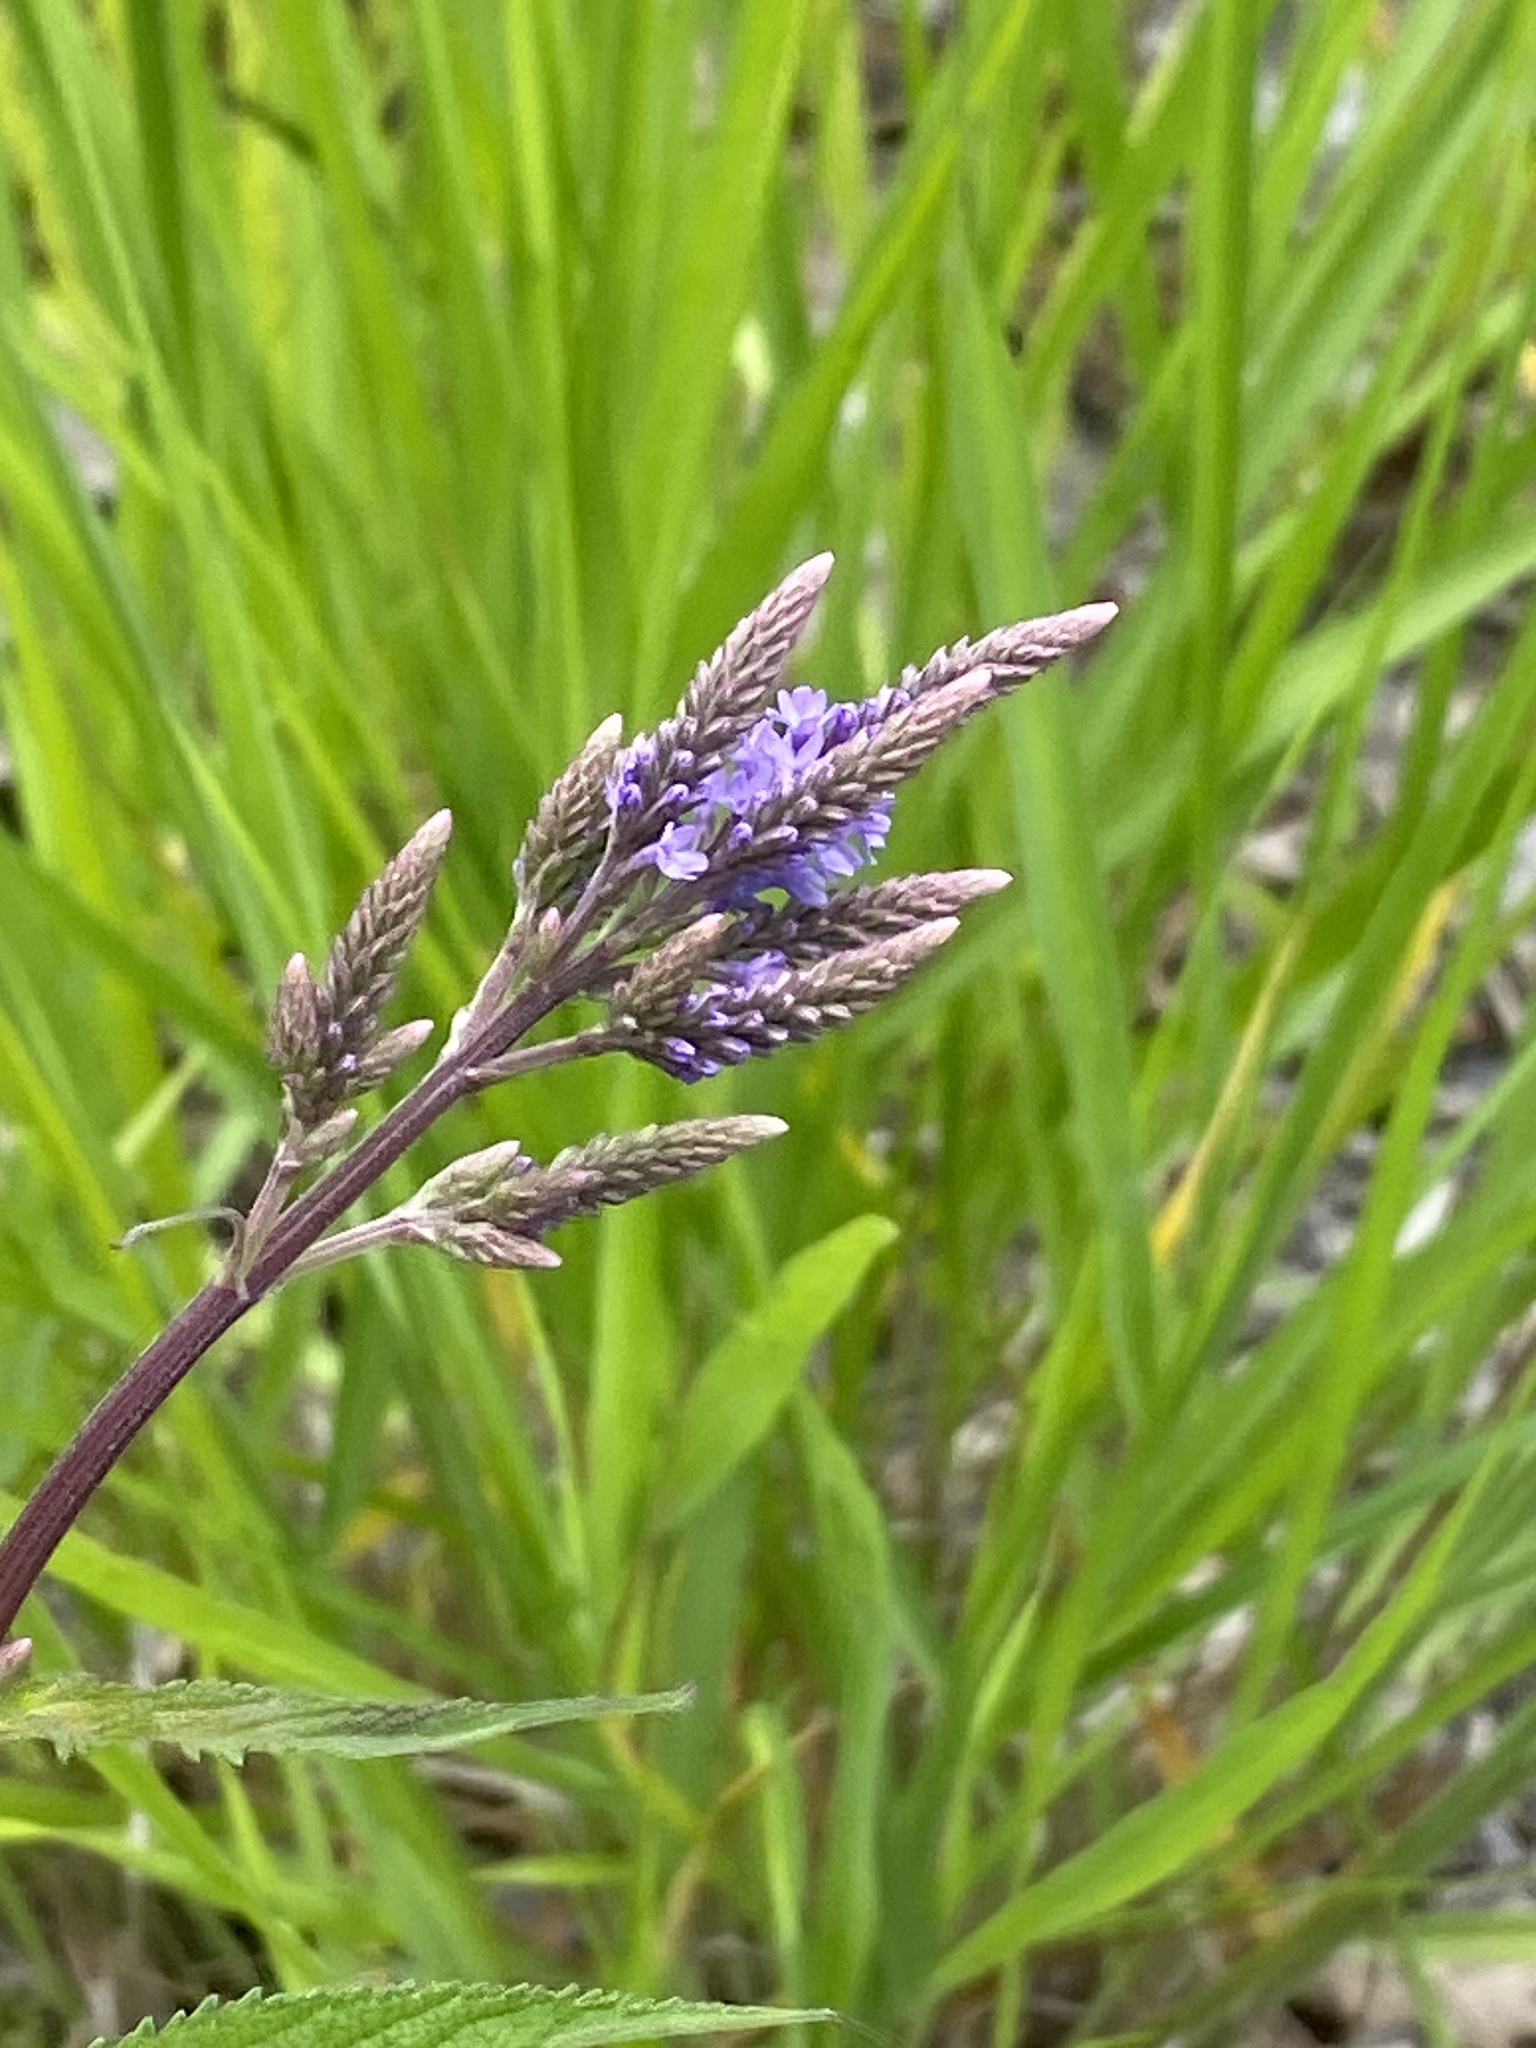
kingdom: Plantae
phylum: Tracheophyta
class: Magnoliopsida
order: Lamiales
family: Verbenaceae
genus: Verbena
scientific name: Verbena hastata
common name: American blue vervain
